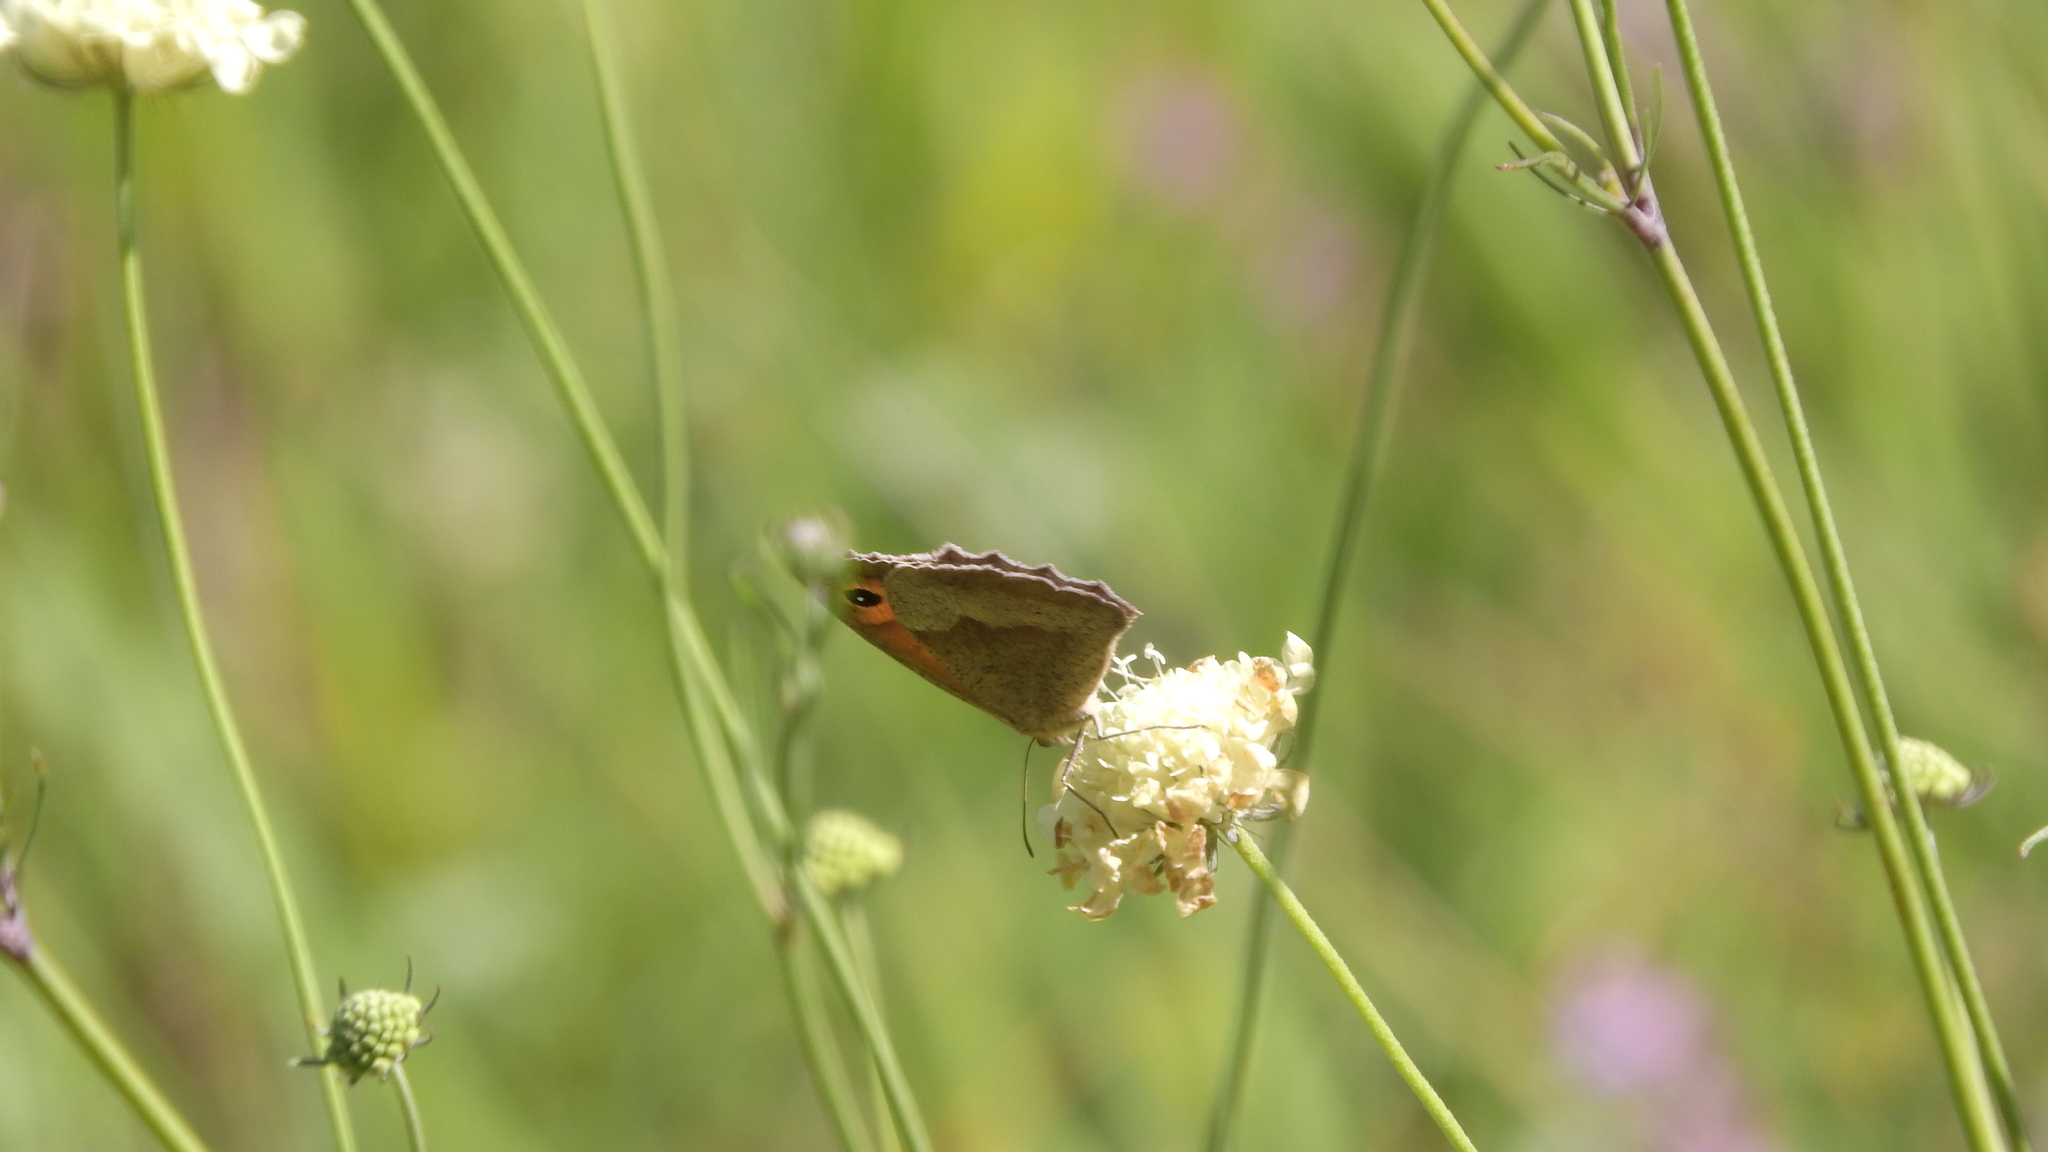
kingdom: Animalia
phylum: Arthropoda
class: Insecta
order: Lepidoptera
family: Nymphalidae
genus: Maniola
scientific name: Maniola jurtina
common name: Meadow brown
